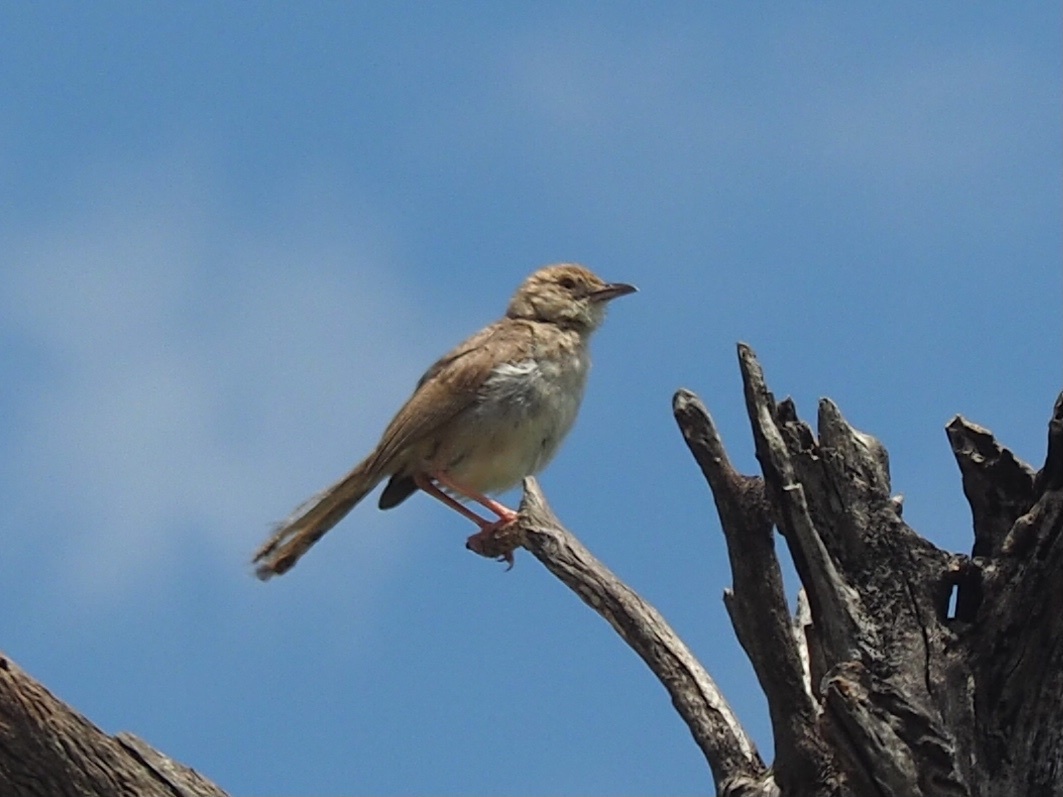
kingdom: Animalia
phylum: Chordata
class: Aves
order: Passeriformes
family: Cisticolidae
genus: Cisticola
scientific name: Cisticola chiniana
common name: Rattling cisticola
